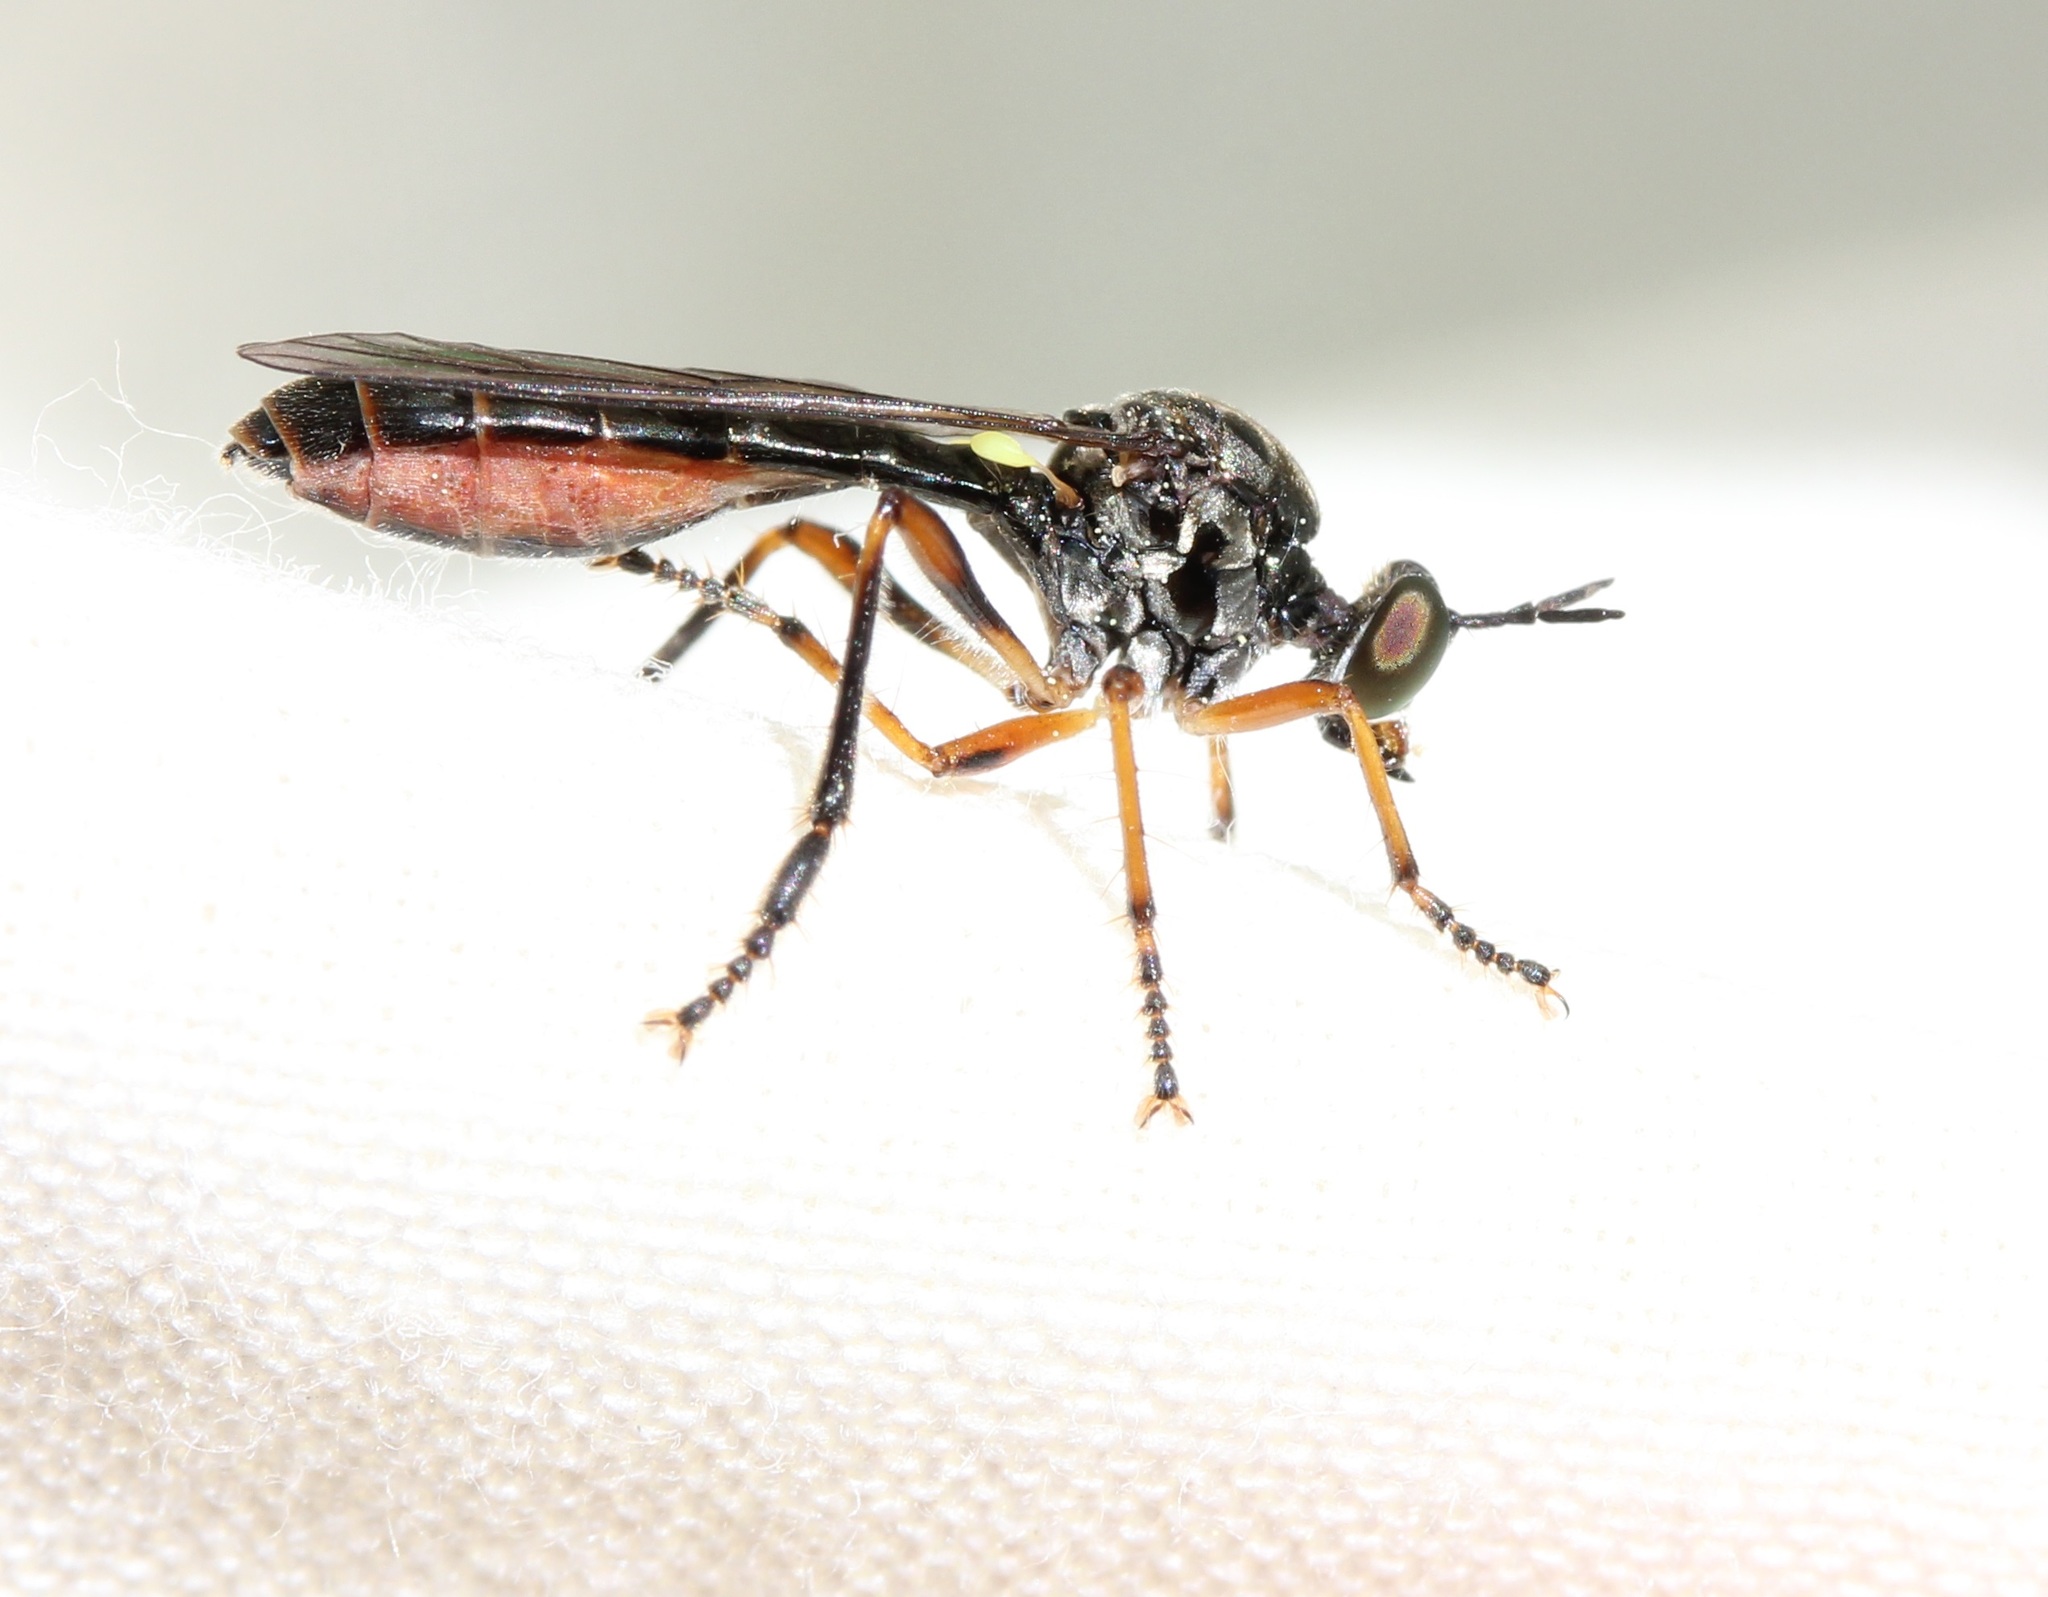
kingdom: Animalia
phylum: Arthropoda
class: Insecta
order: Diptera
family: Asilidae
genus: Dioctria
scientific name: Dioctria hyalipennis
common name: Stripe-legged robberfly
